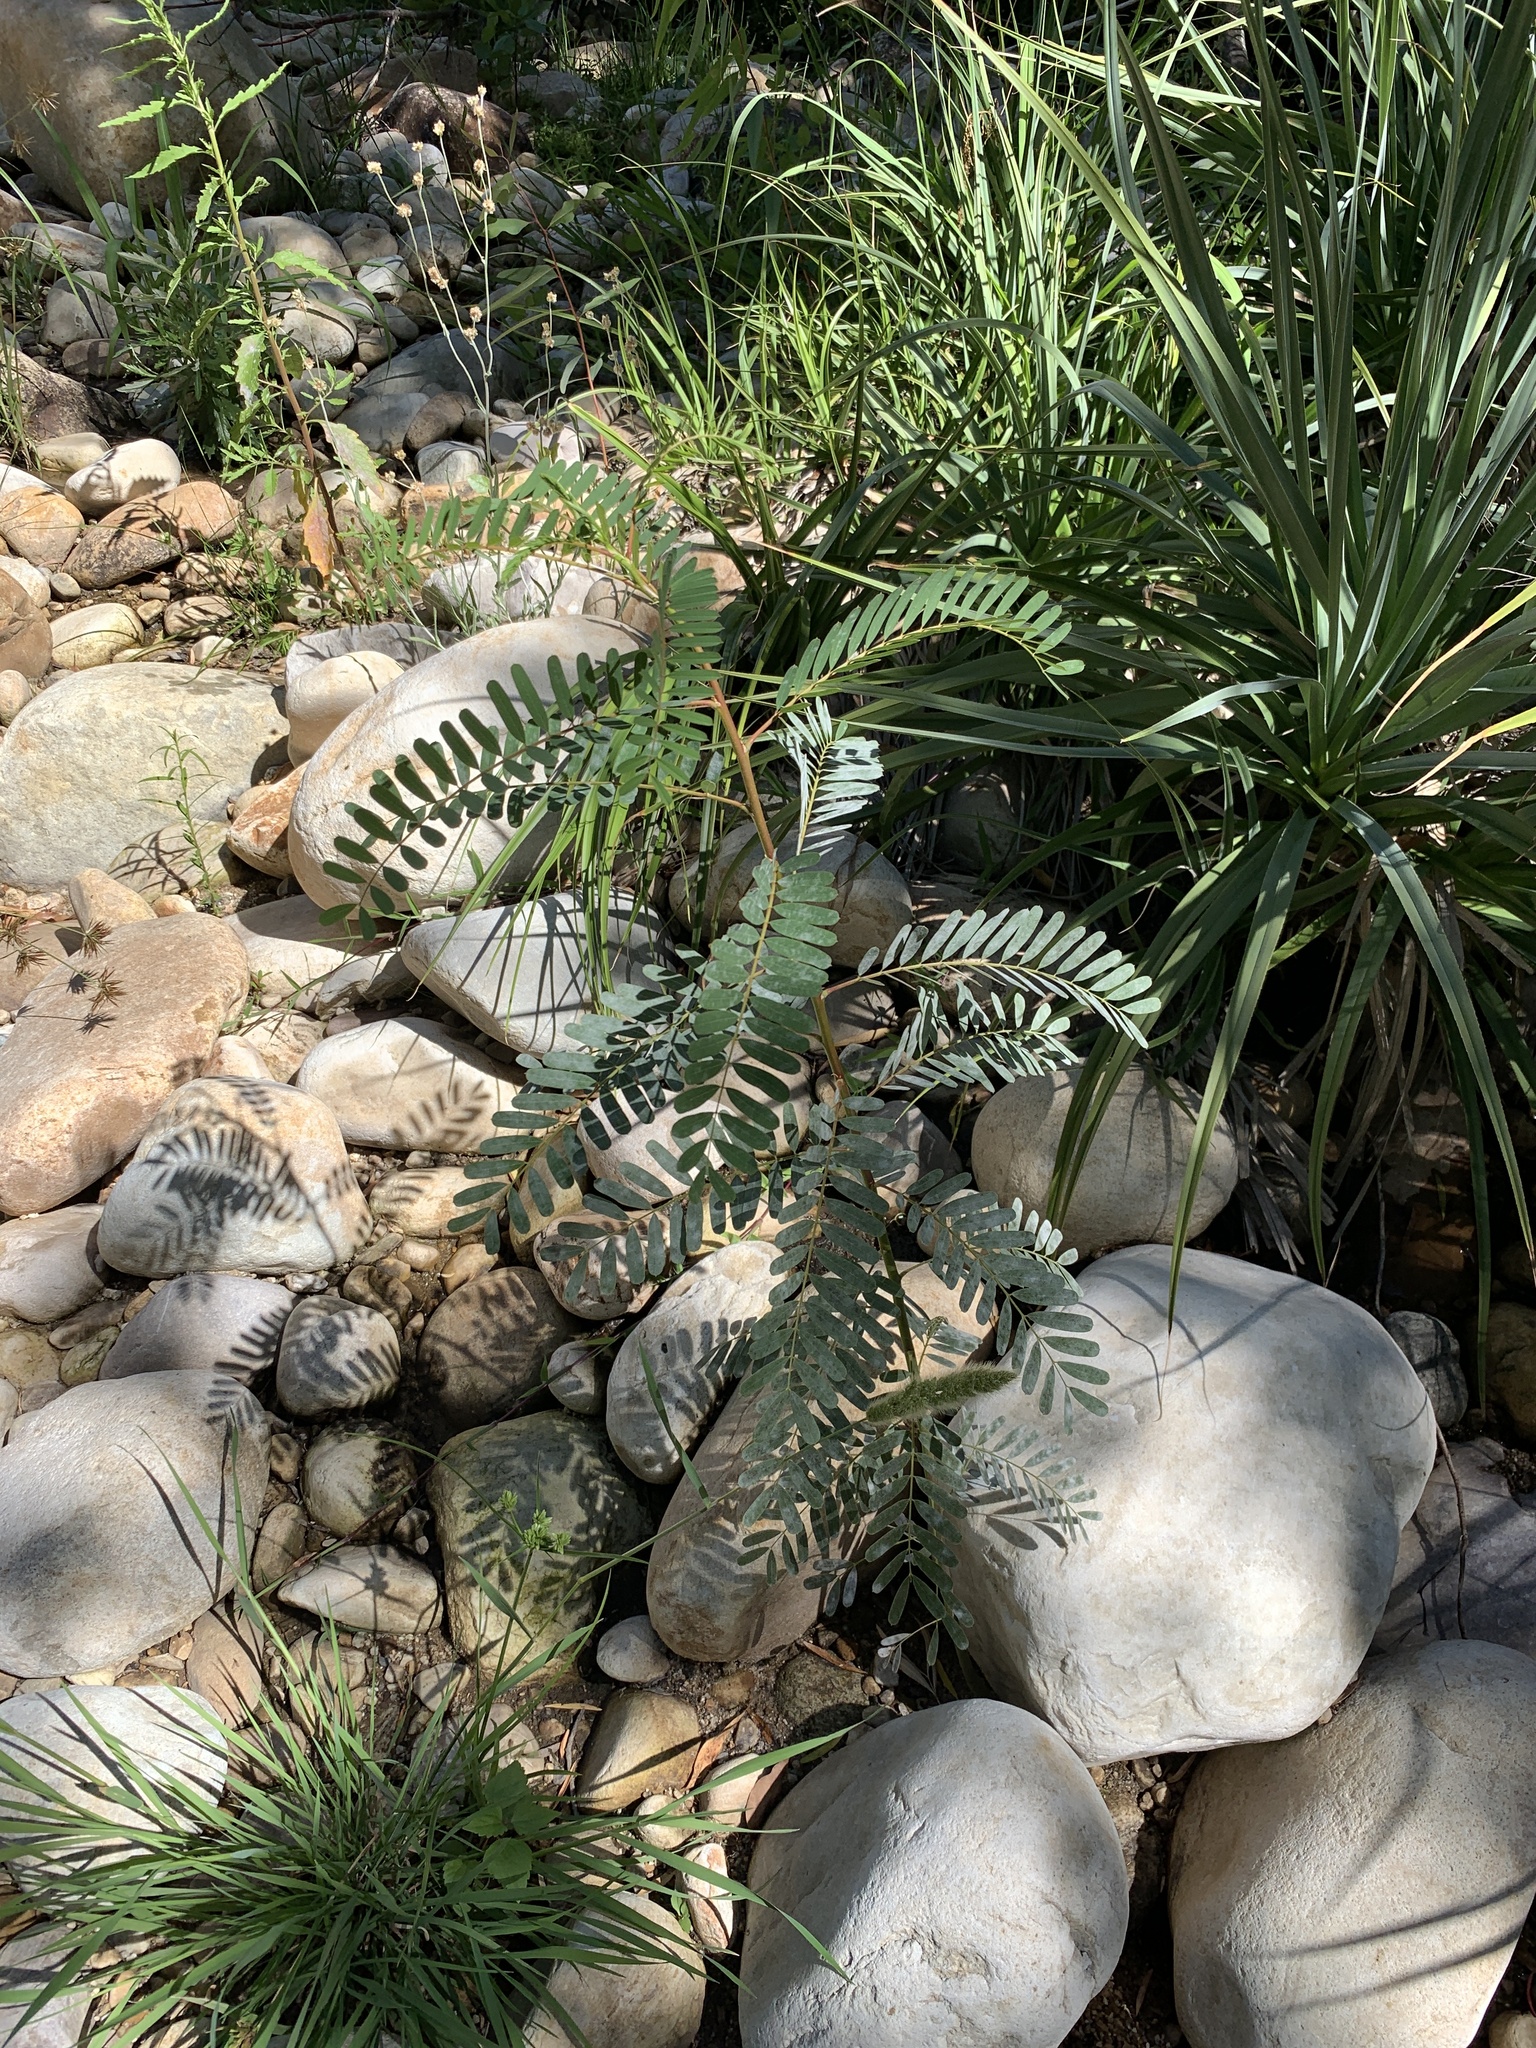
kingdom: Plantae
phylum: Tracheophyta
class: Magnoliopsida
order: Fabales
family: Fabaceae
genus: Sesbania
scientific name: Sesbania punicea
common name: Rattlebox
